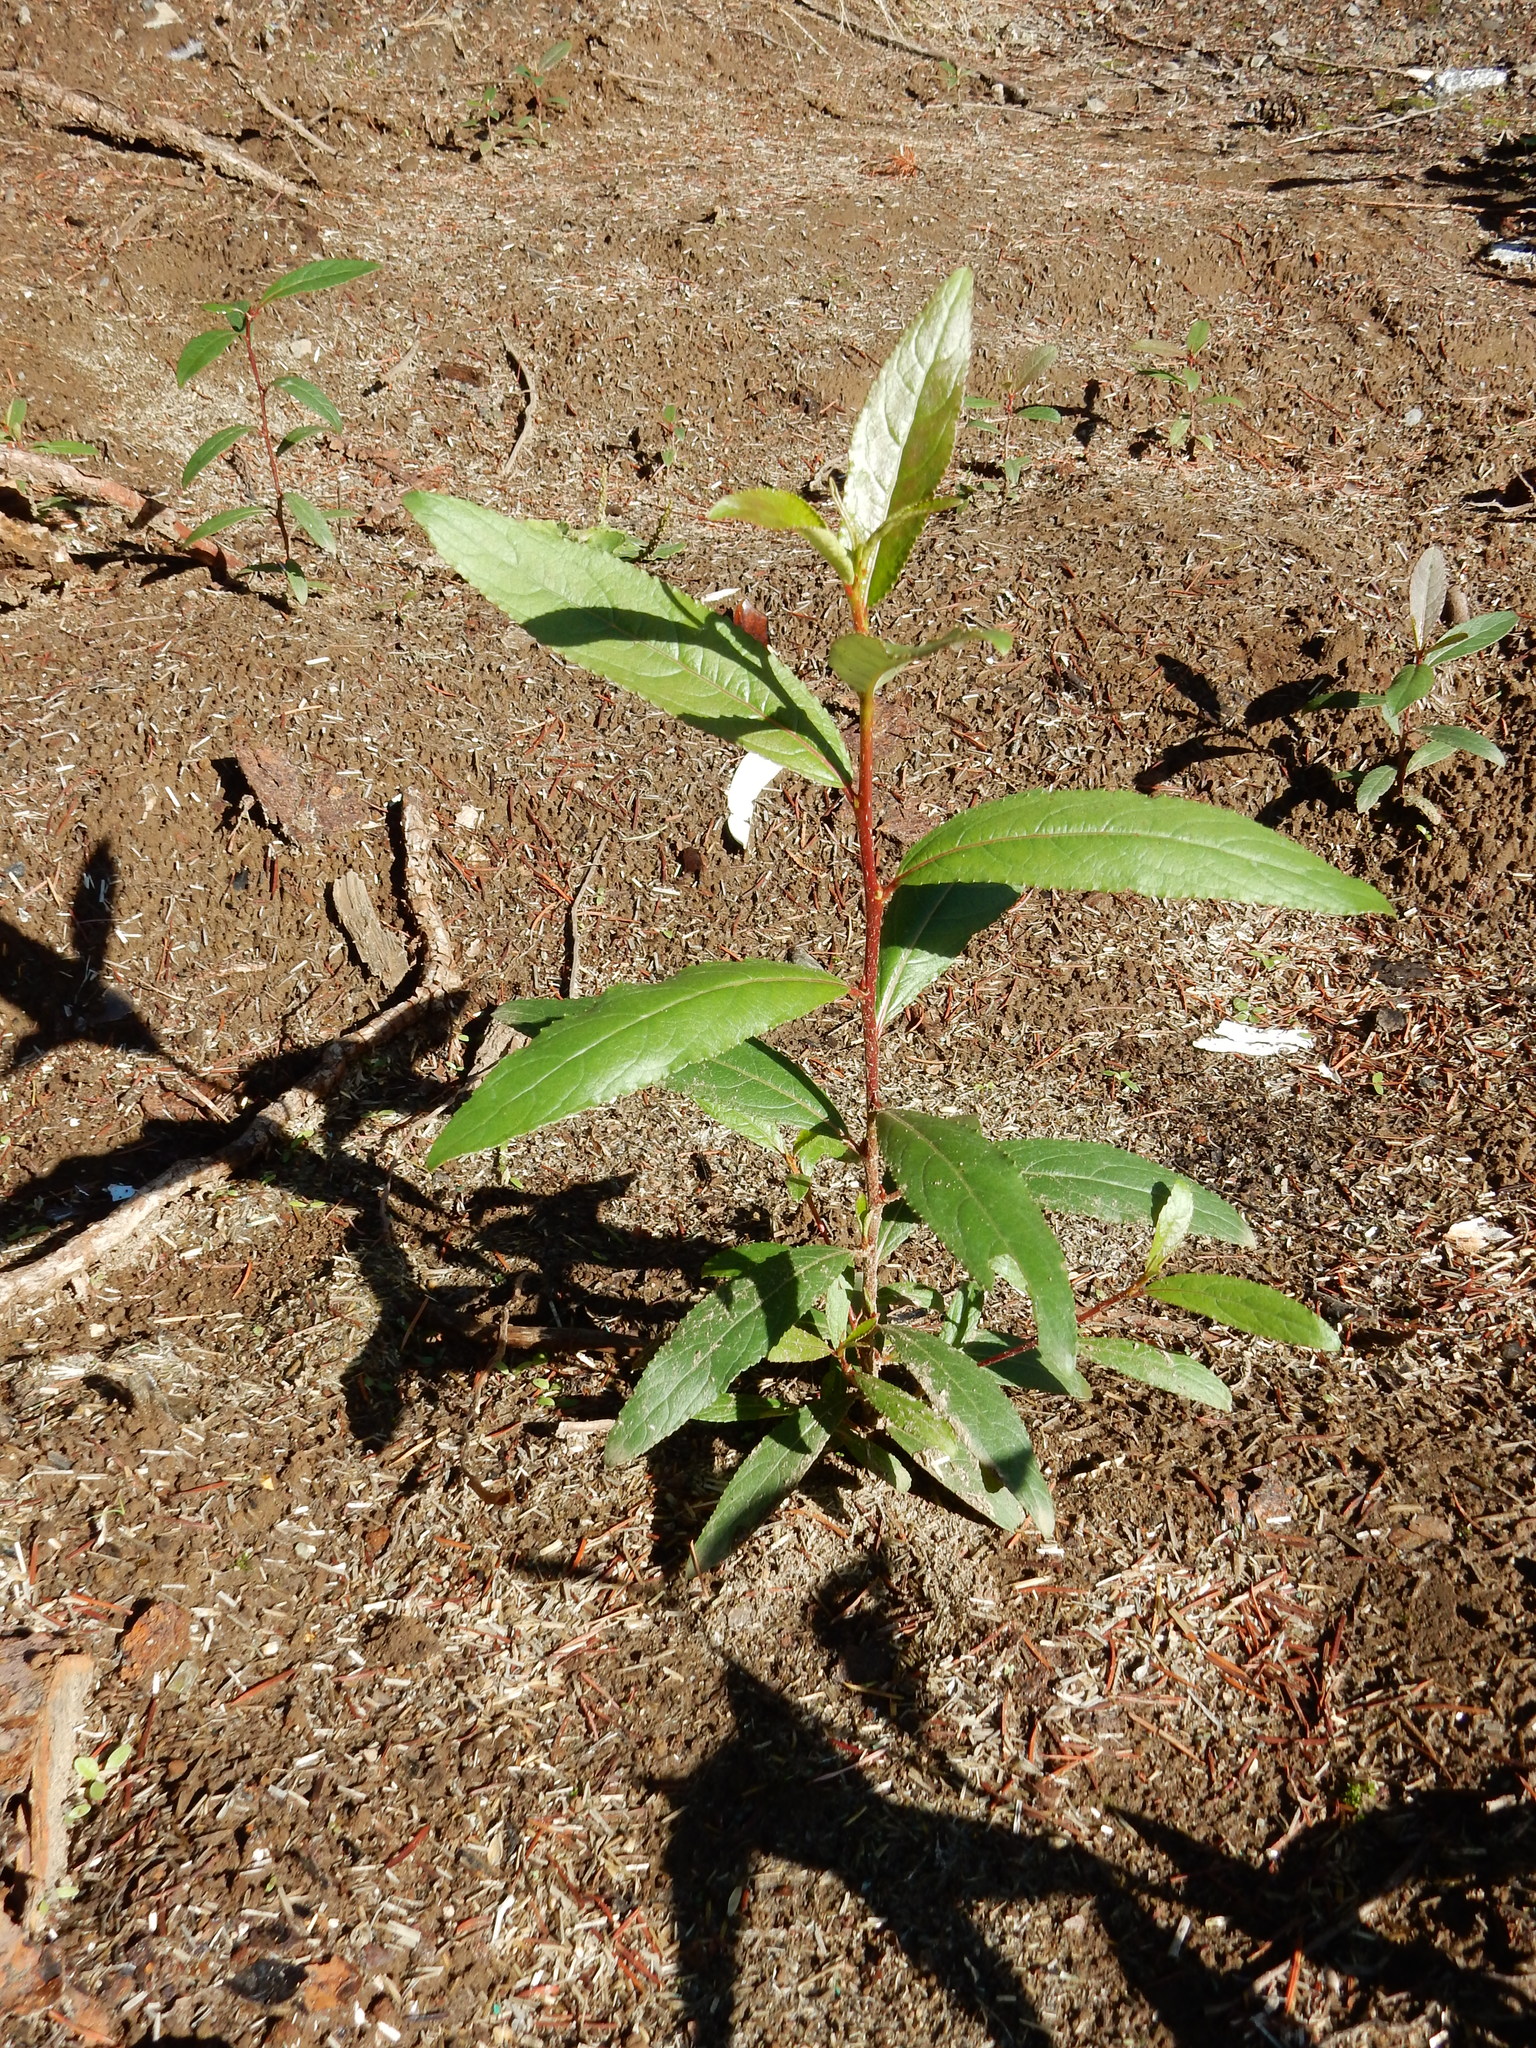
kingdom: Plantae
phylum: Tracheophyta
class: Magnoliopsida
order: Malpighiales
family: Salicaceae
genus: Populus
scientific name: Populus trichocarpa
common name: Black cottonwood
